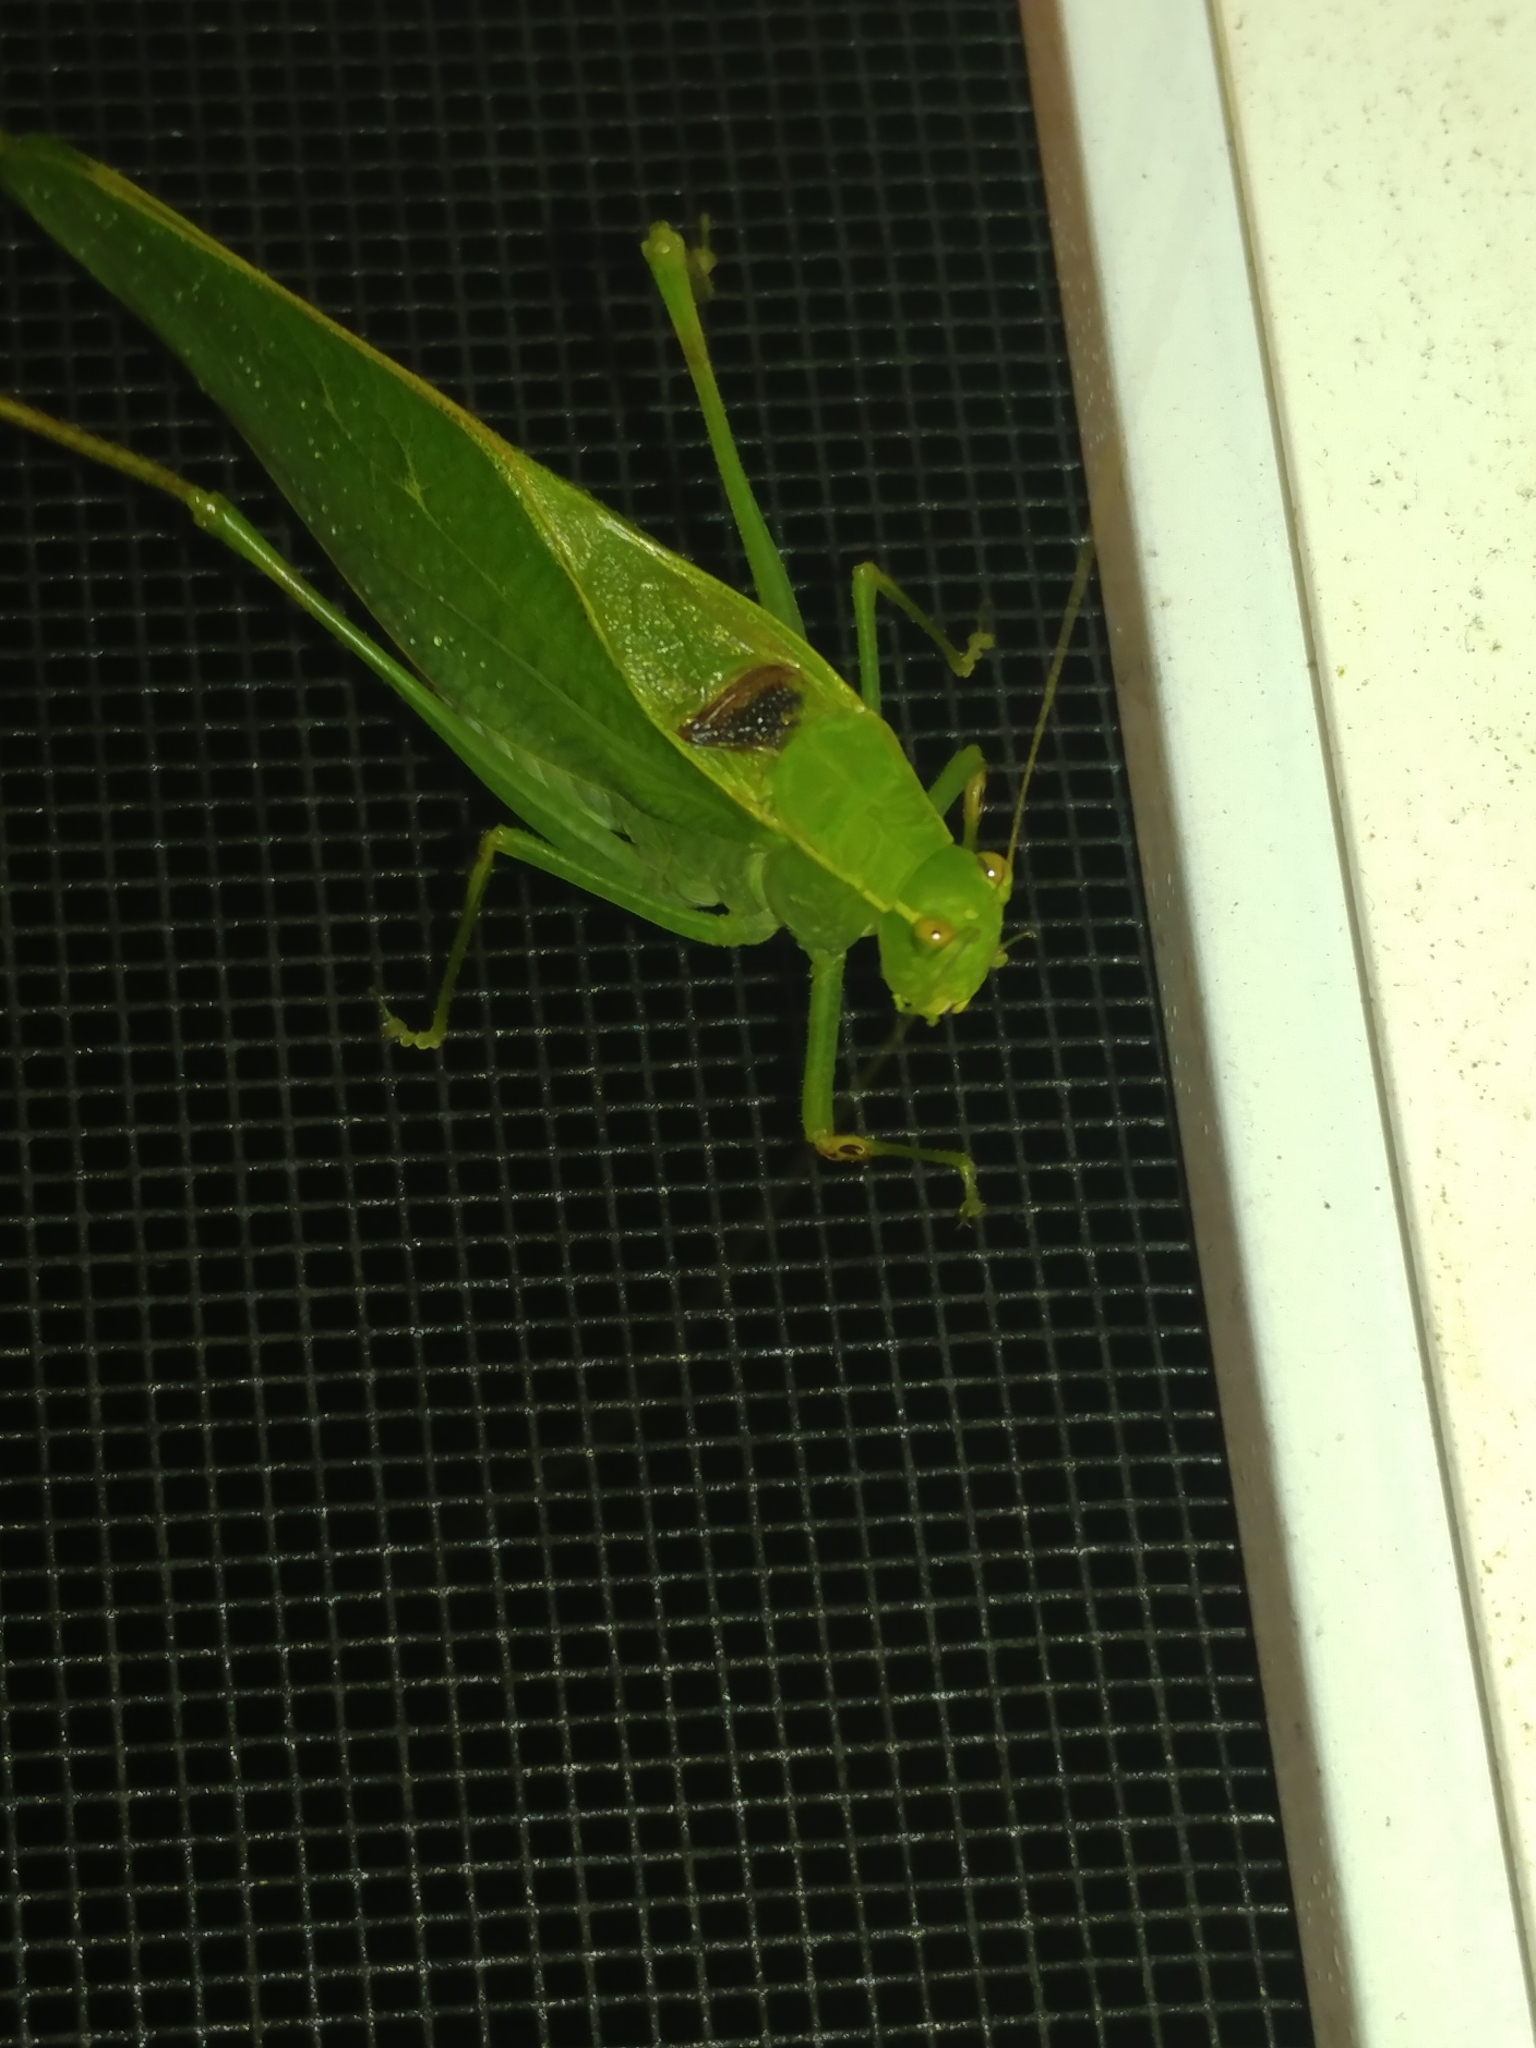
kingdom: Animalia
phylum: Arthropoda
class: Insecta
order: Orthoptera
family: Tettigoniidae
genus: Microcentrum
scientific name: Microcentrum retinerve
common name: Angular-winged katydid
